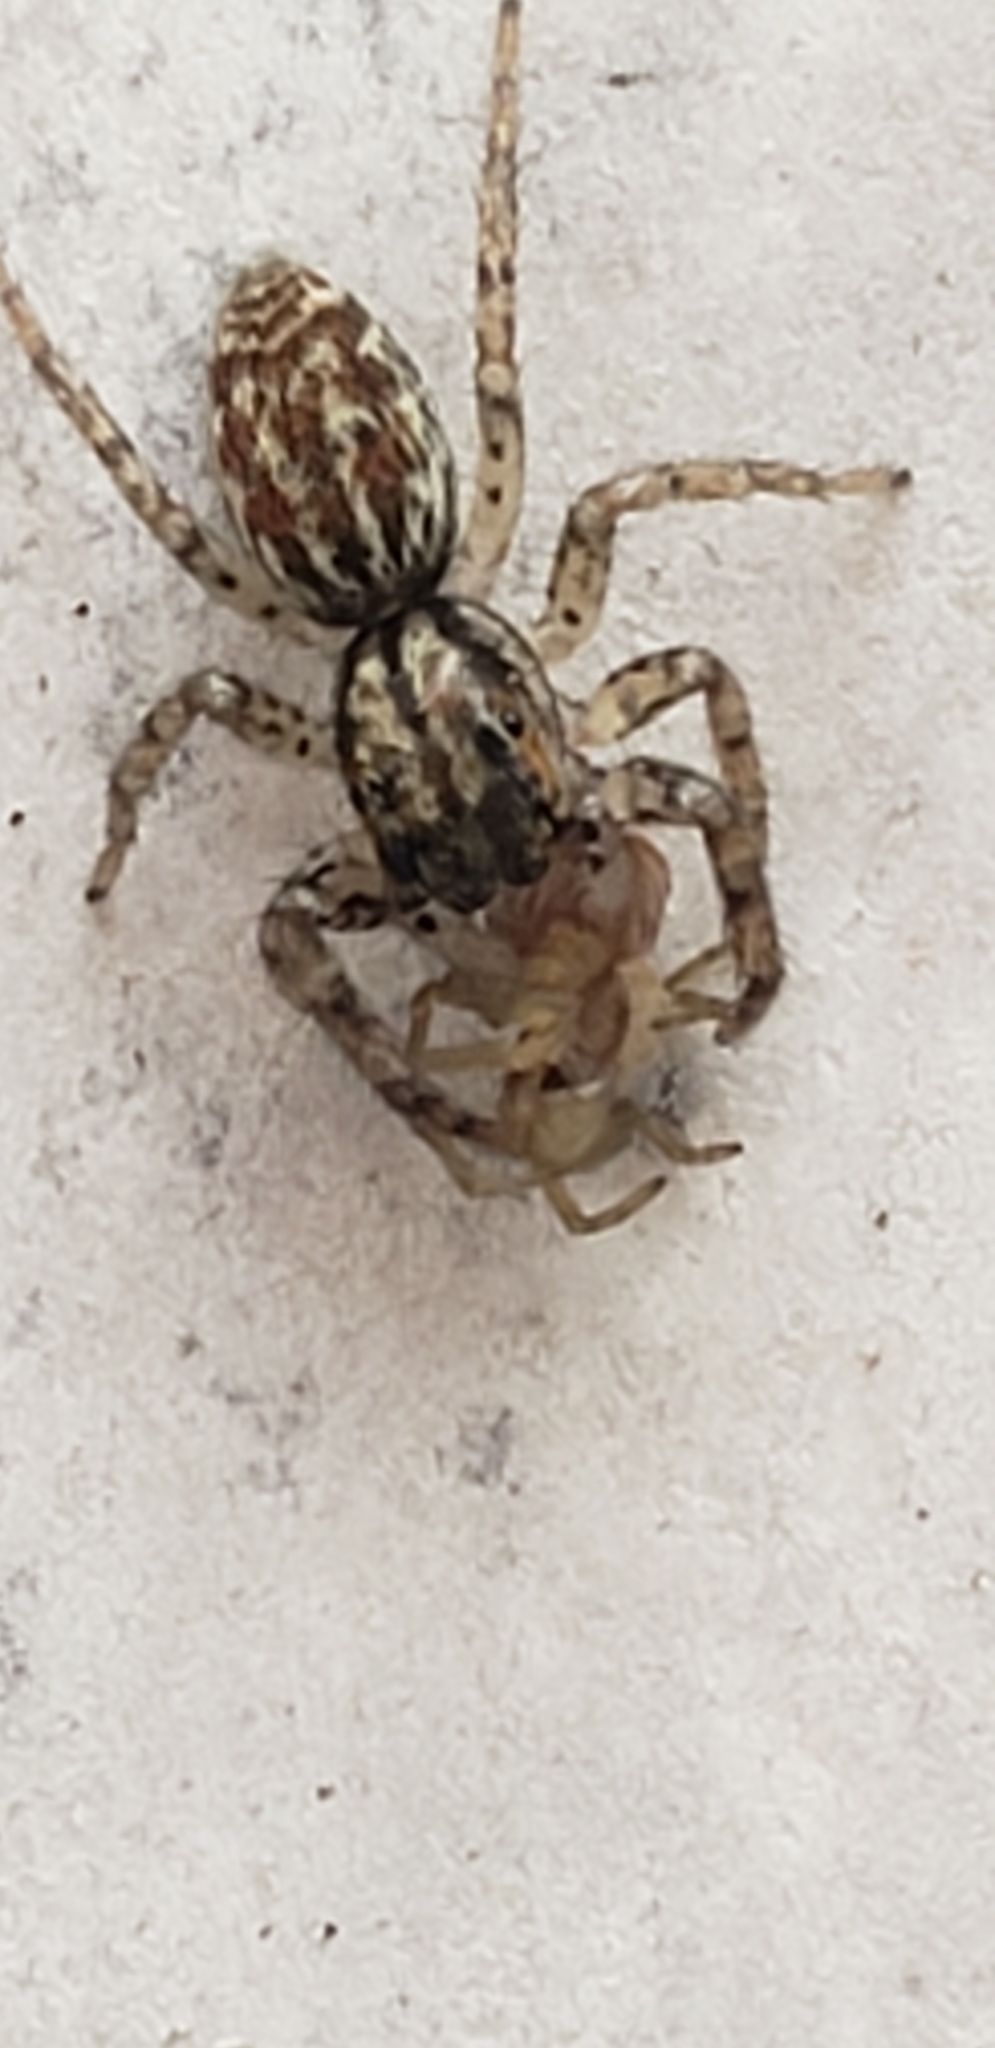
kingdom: Animalia
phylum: Arthropoda
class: Arachnida
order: Araneae
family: Salticidae
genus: Maevia
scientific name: Maevia inclemens
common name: Dimorphic jumper
